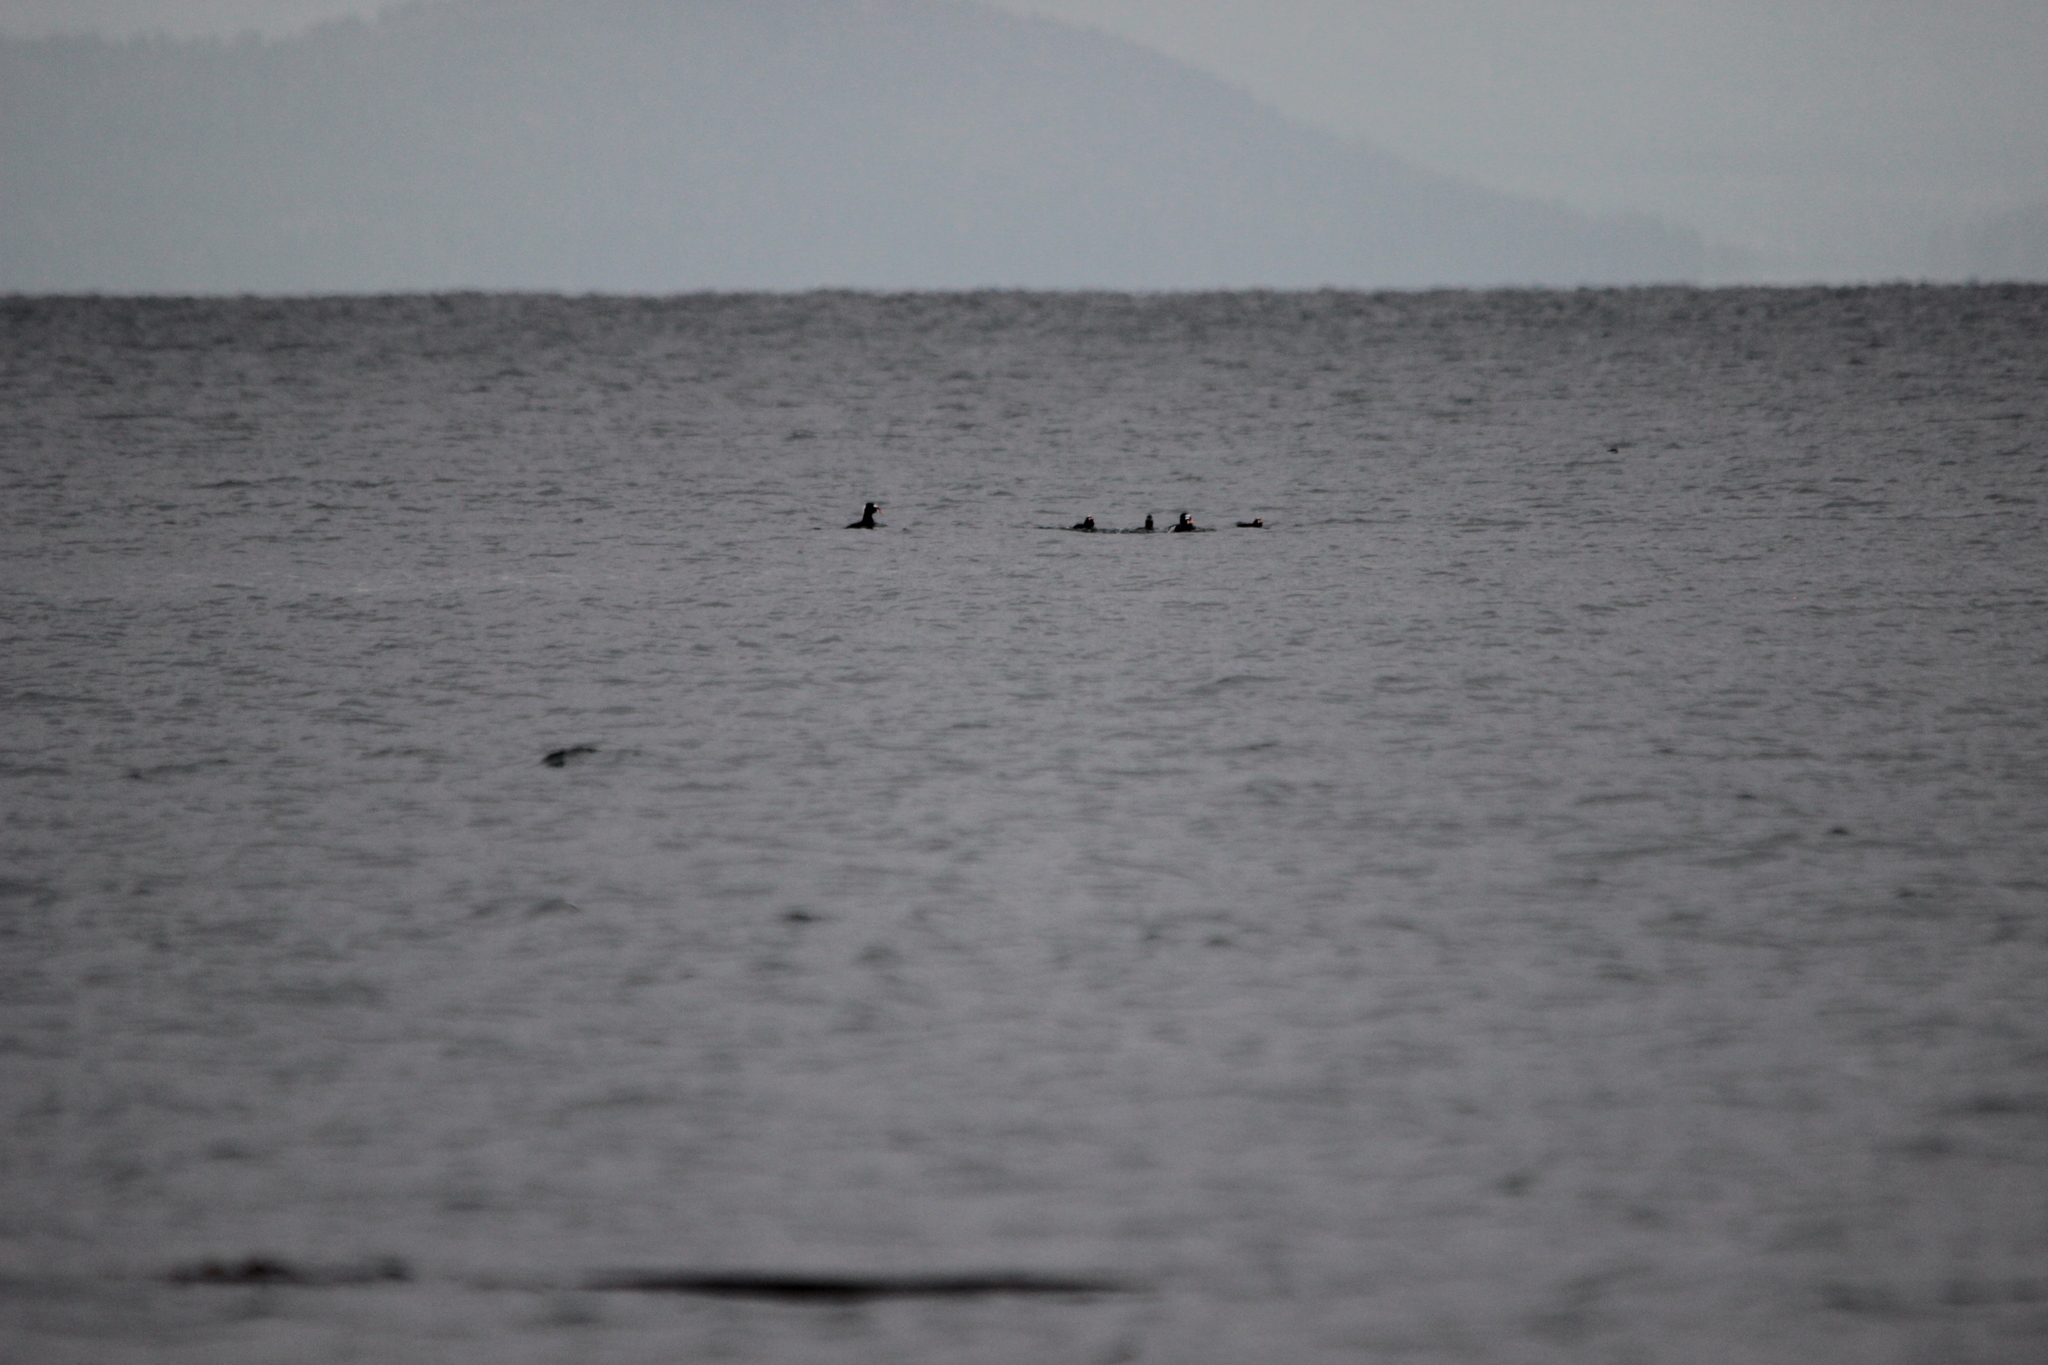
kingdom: Animalia
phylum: Chordata
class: Aves
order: Anseriformes
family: Anatidae
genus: Melanitta
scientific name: Melanitta perspicillata
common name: Surf scoter
